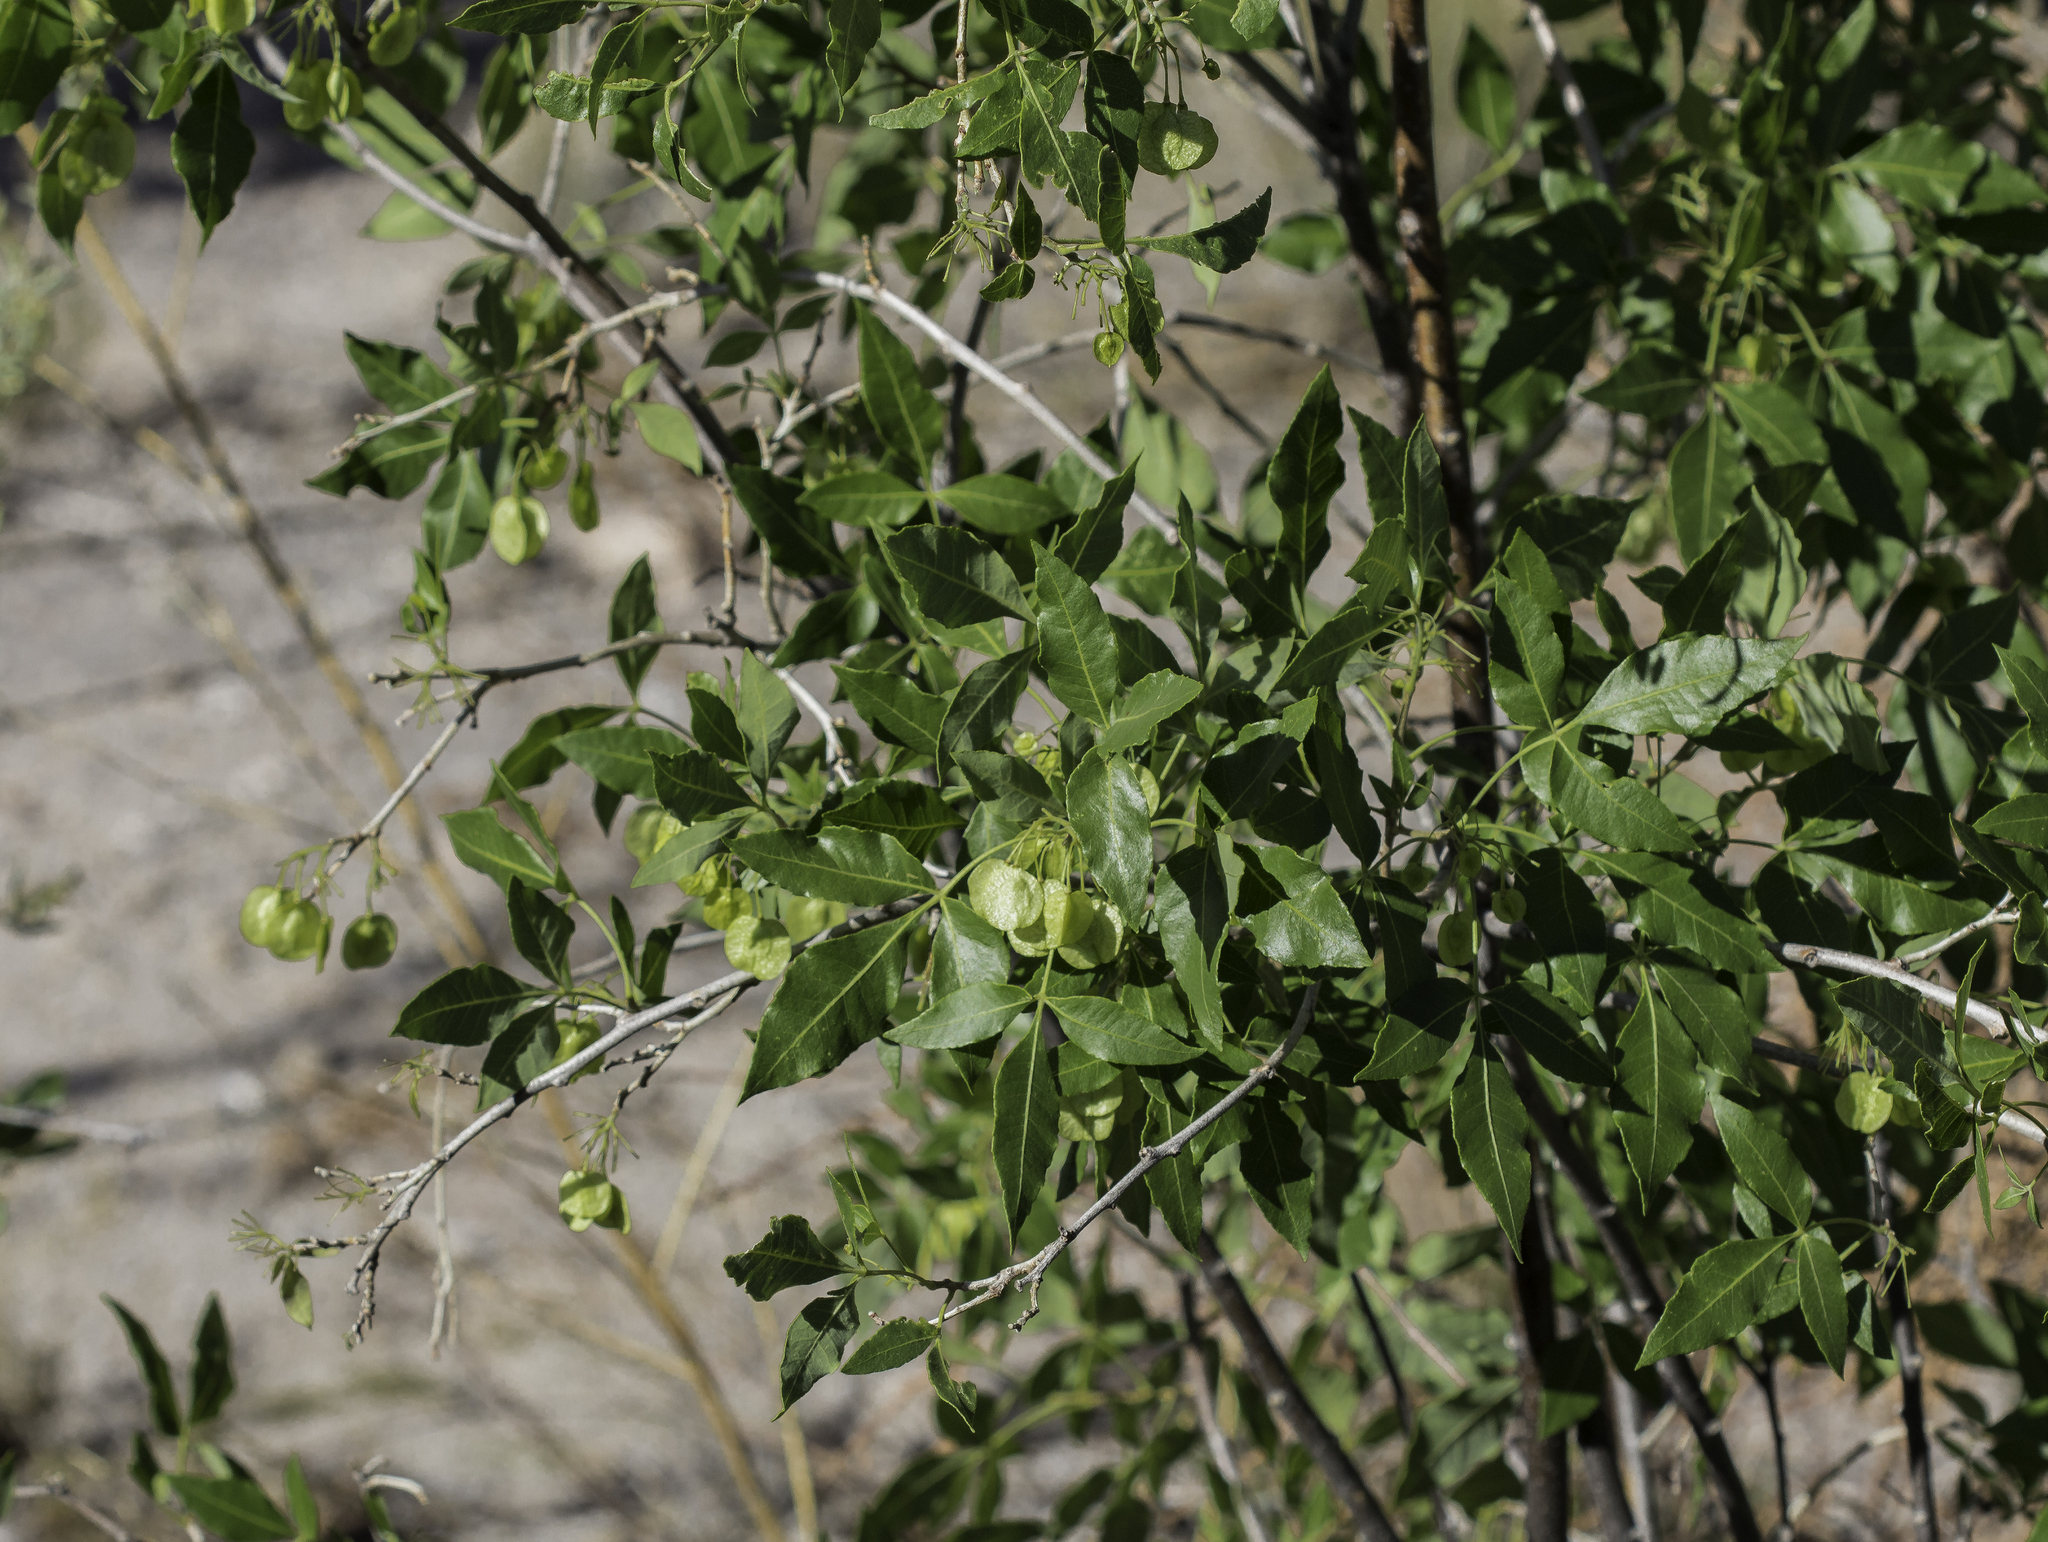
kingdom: Plantae
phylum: Tracheophyta
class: Magnoliopsida
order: Sapindales
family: Rutaceae
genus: Ptelea
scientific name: Ptelea trifoliata
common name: Common hop-tree
